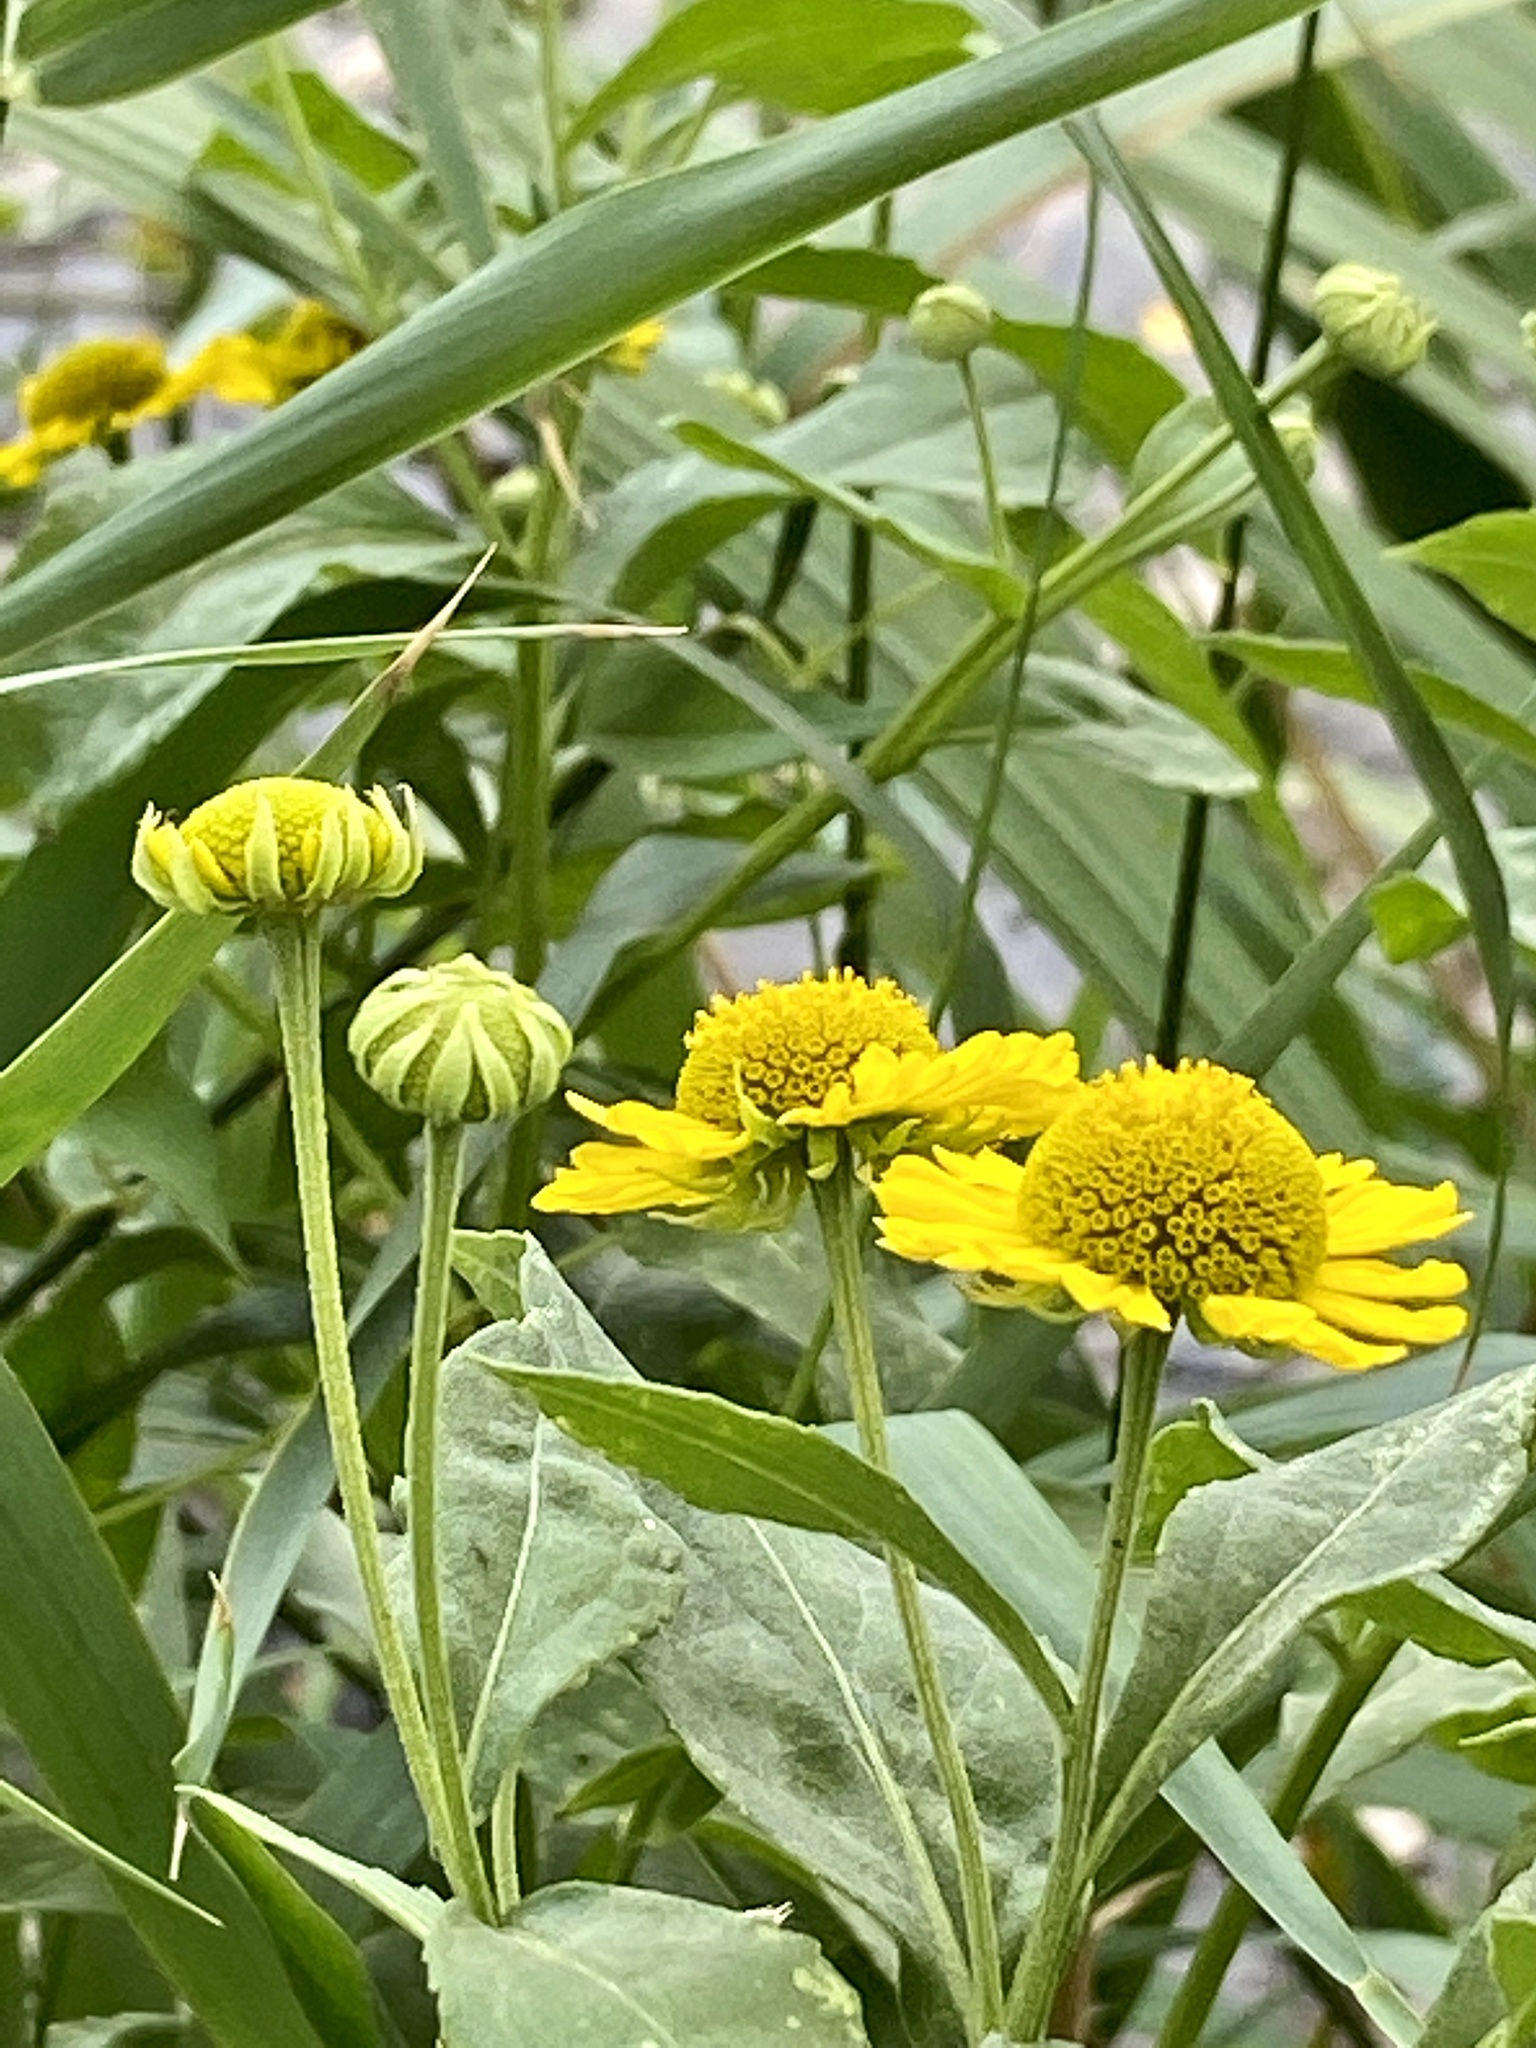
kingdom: Plantae
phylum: Tracheophyta
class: Magnoliopsida
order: Asterales
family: Asteraceae
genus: Helenium
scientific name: Helenium autumnale
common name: Sneezeweed
